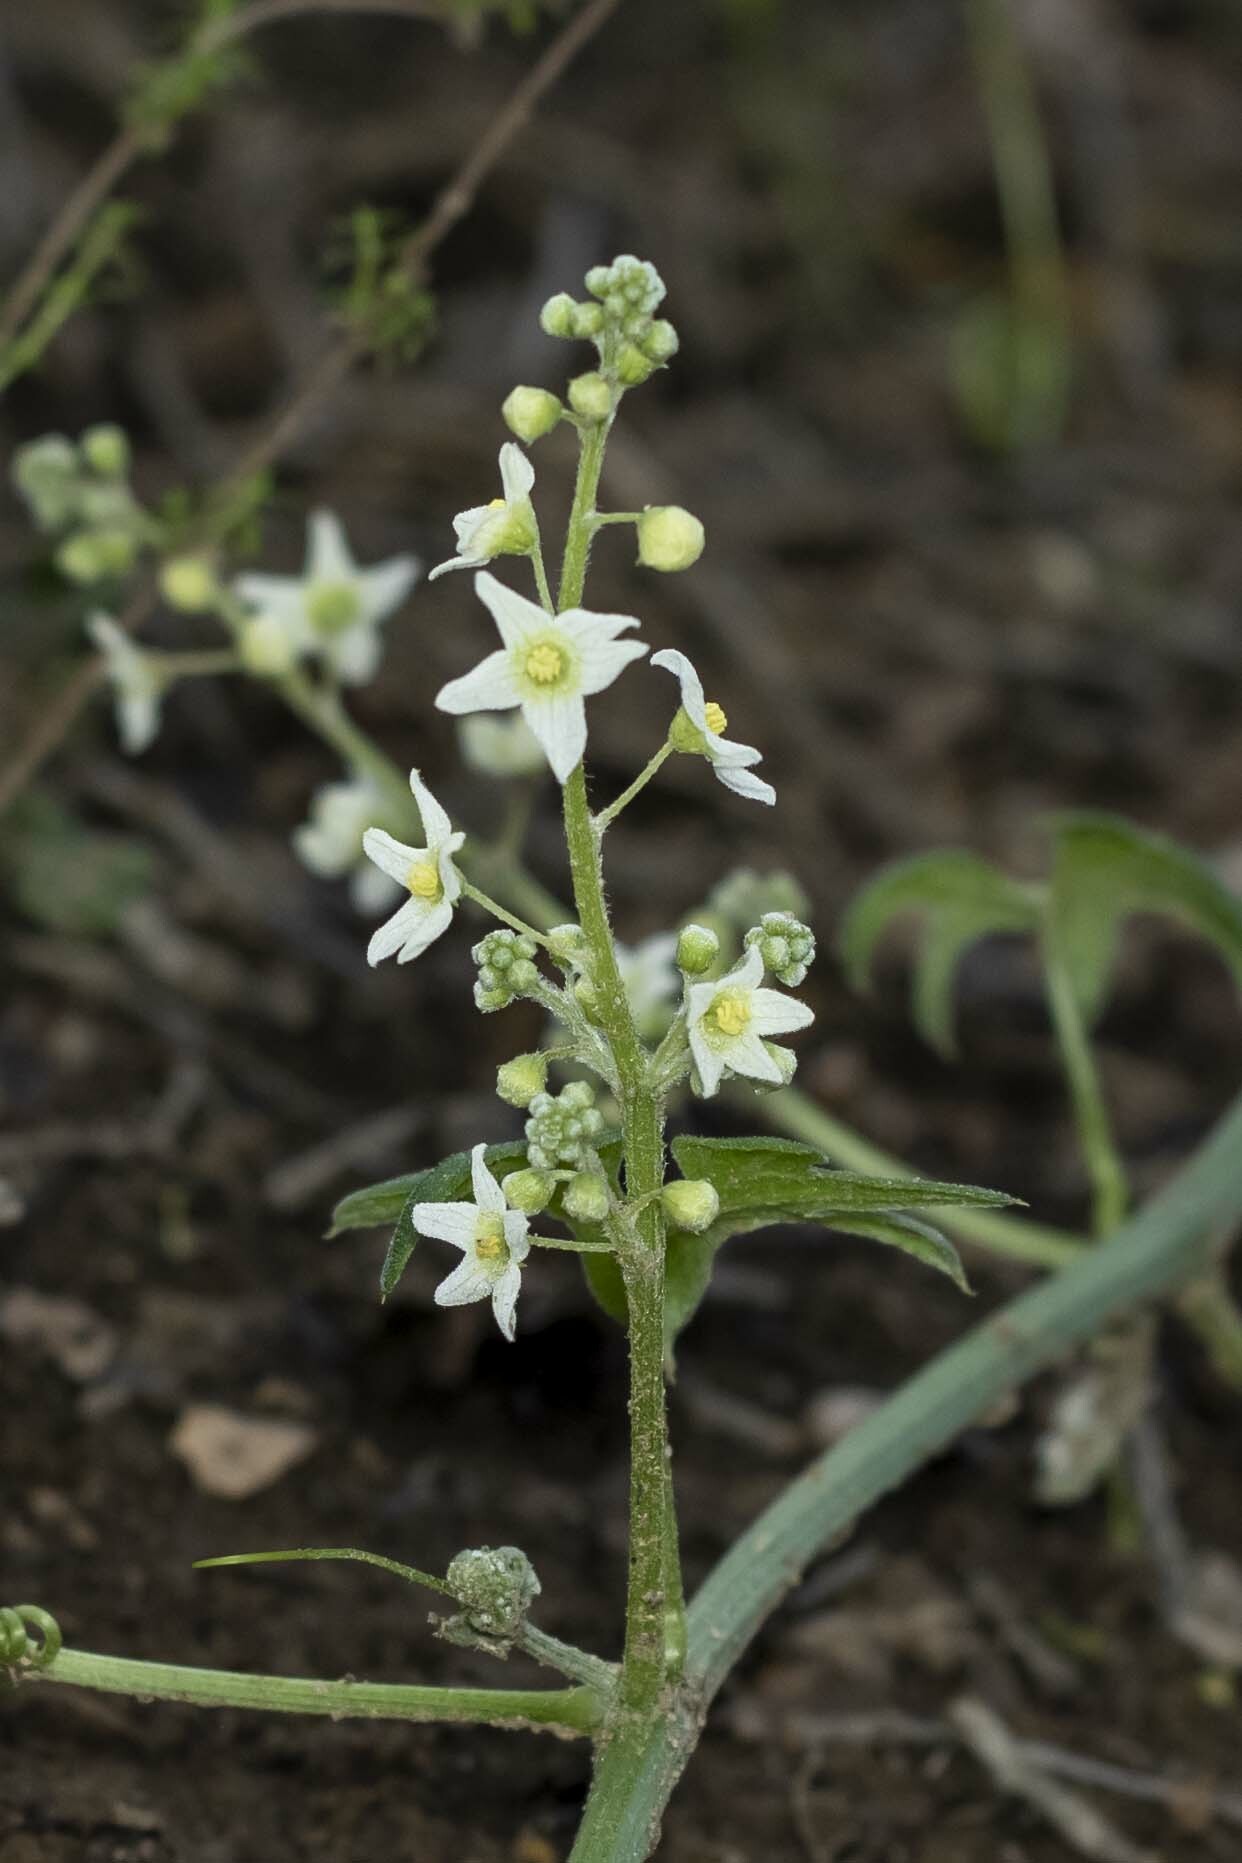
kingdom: Plantae
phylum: Tracheophyta
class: Magnoliopsida
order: Cucurbitales
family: Cucurbitaceae
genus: Marah
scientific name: Marah macrocarpa
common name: Cucamonga manroot
